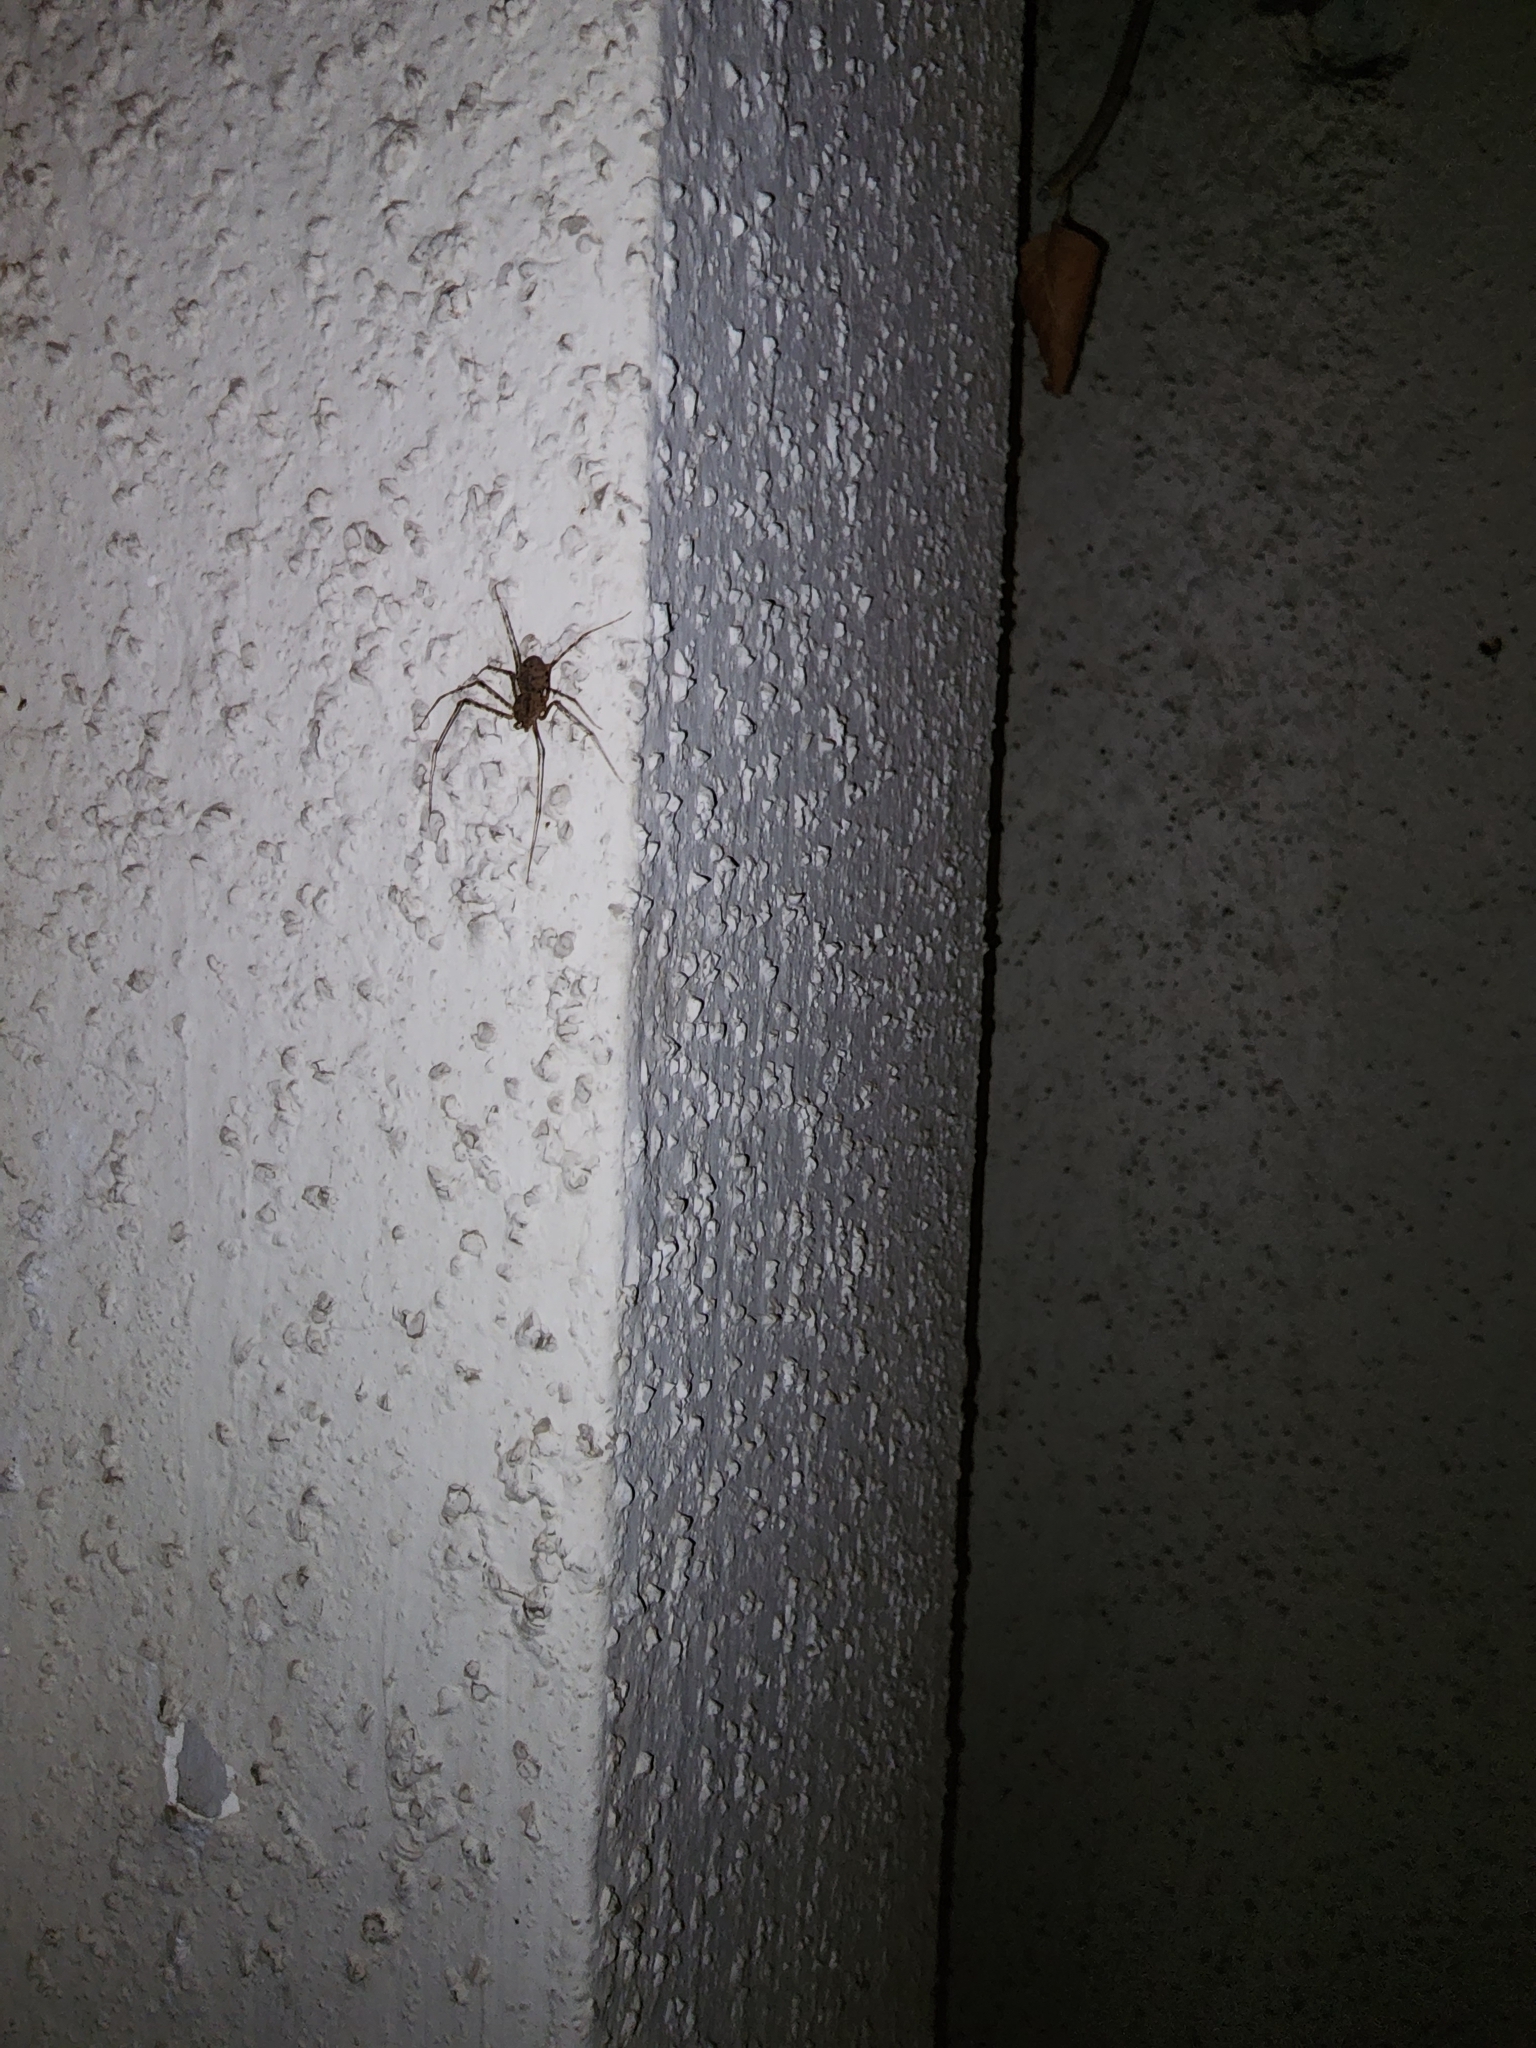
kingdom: Animalia
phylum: Arthropoda
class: Arachnida
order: Araneae
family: Scytodidae
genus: Scytodes
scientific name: Scytodes globula
